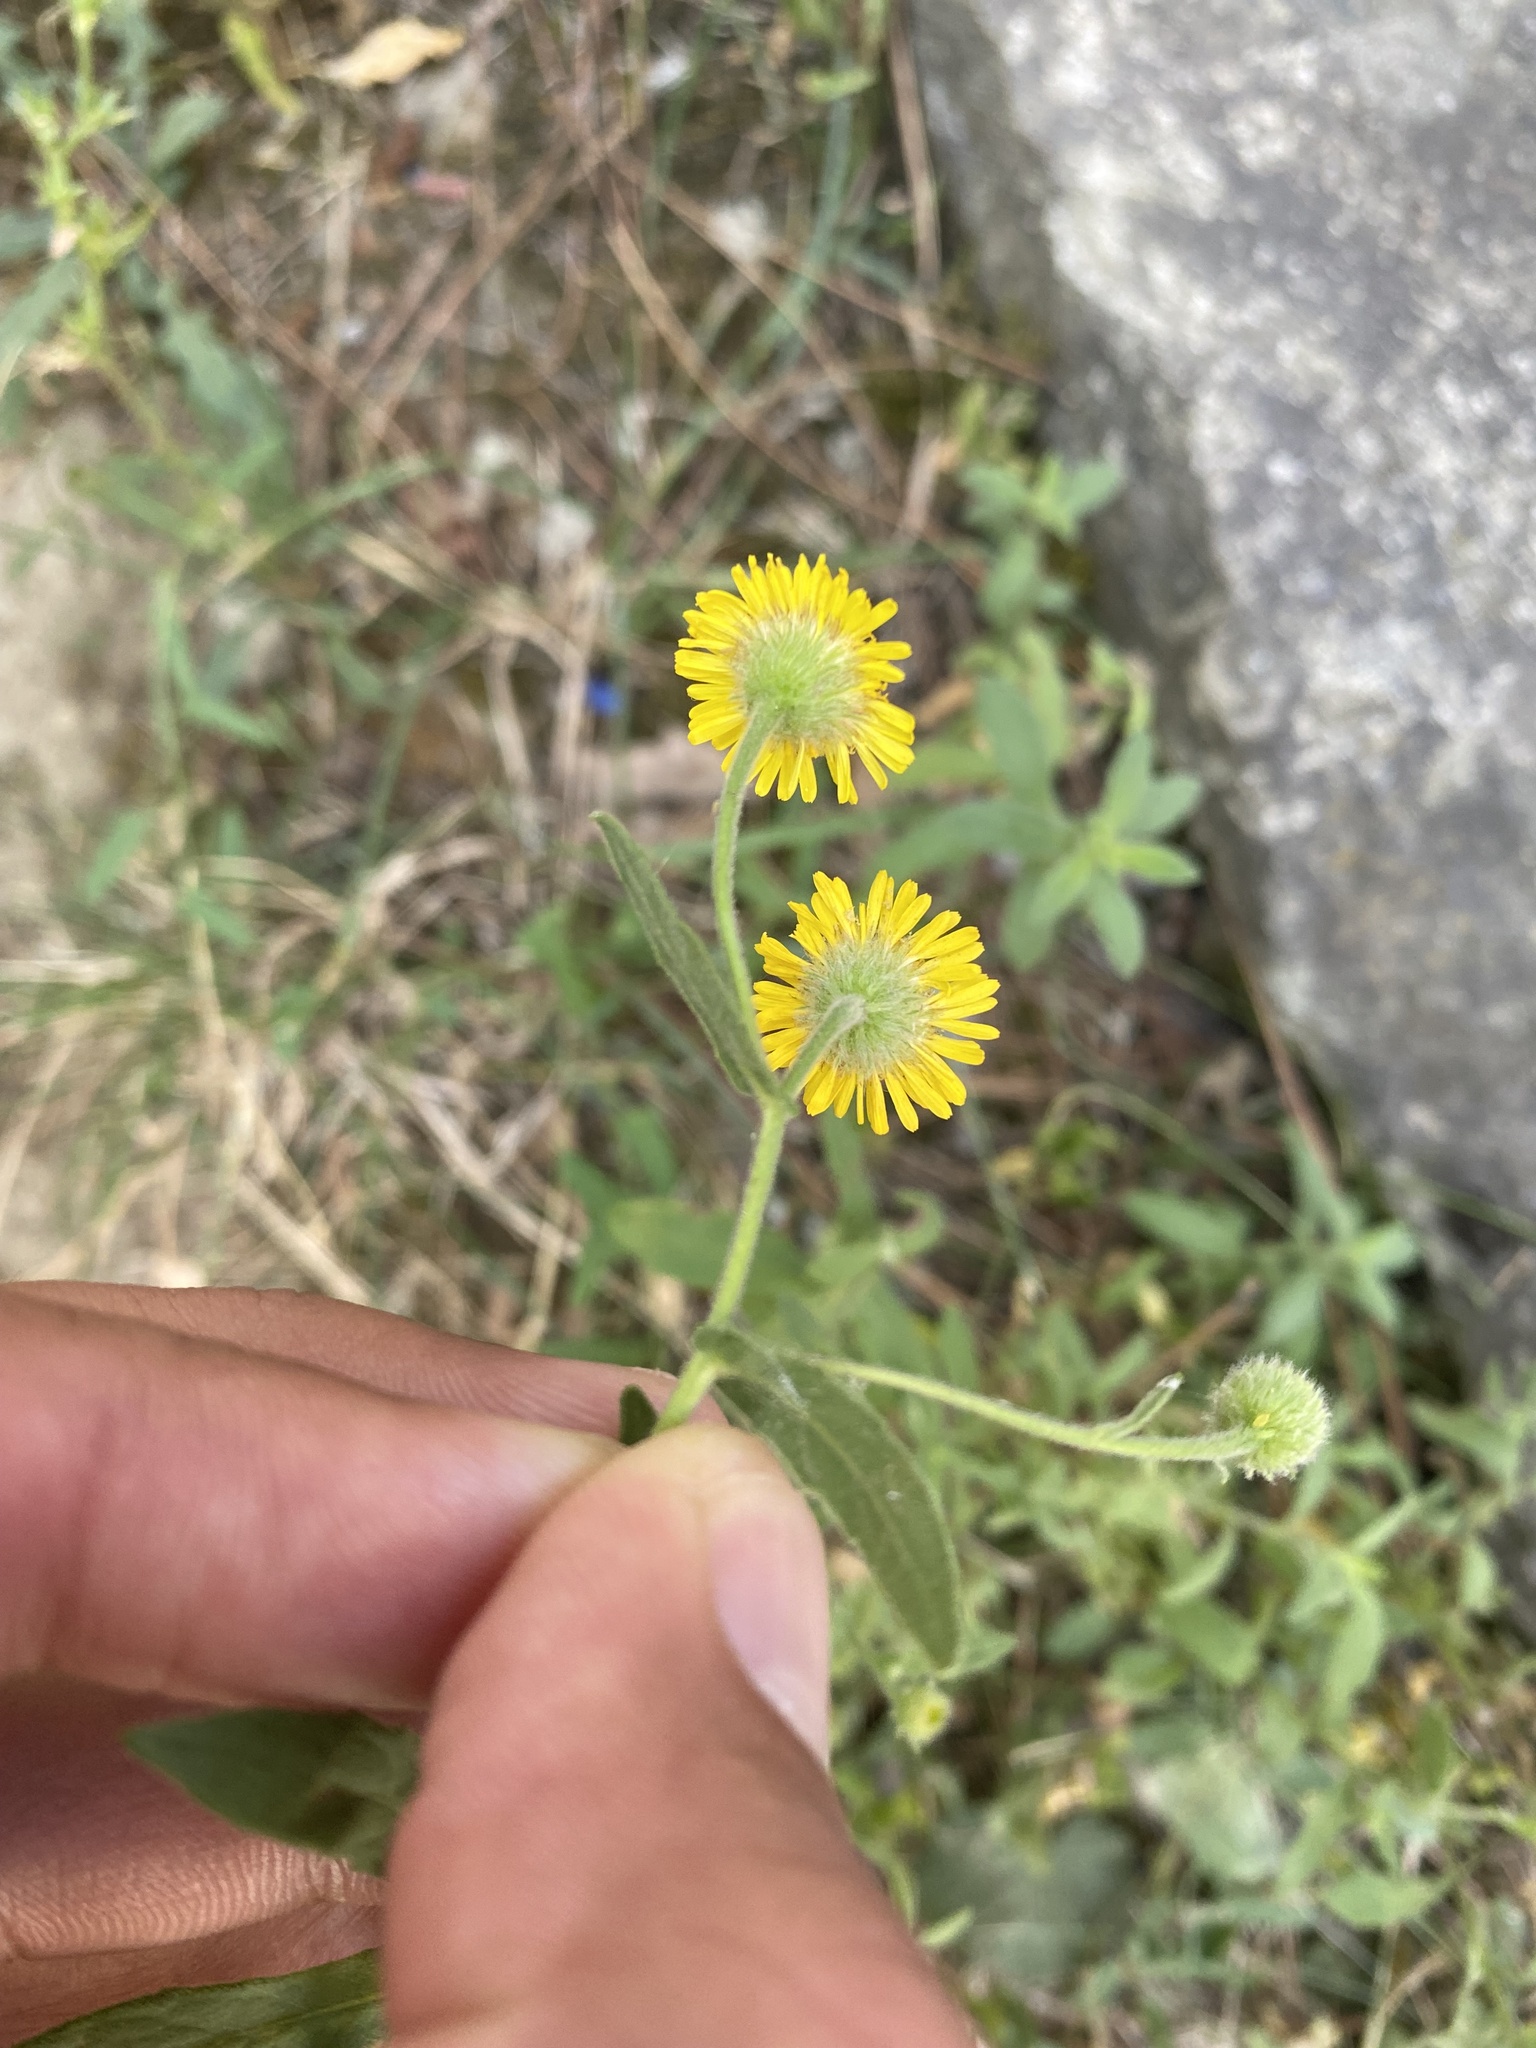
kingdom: Plantae
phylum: Tracheophyta
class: Magnoliopsida
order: Asterales
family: Asteraceae
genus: Pulicaria
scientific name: Pulicaria dysenterica
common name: Common fleabane
